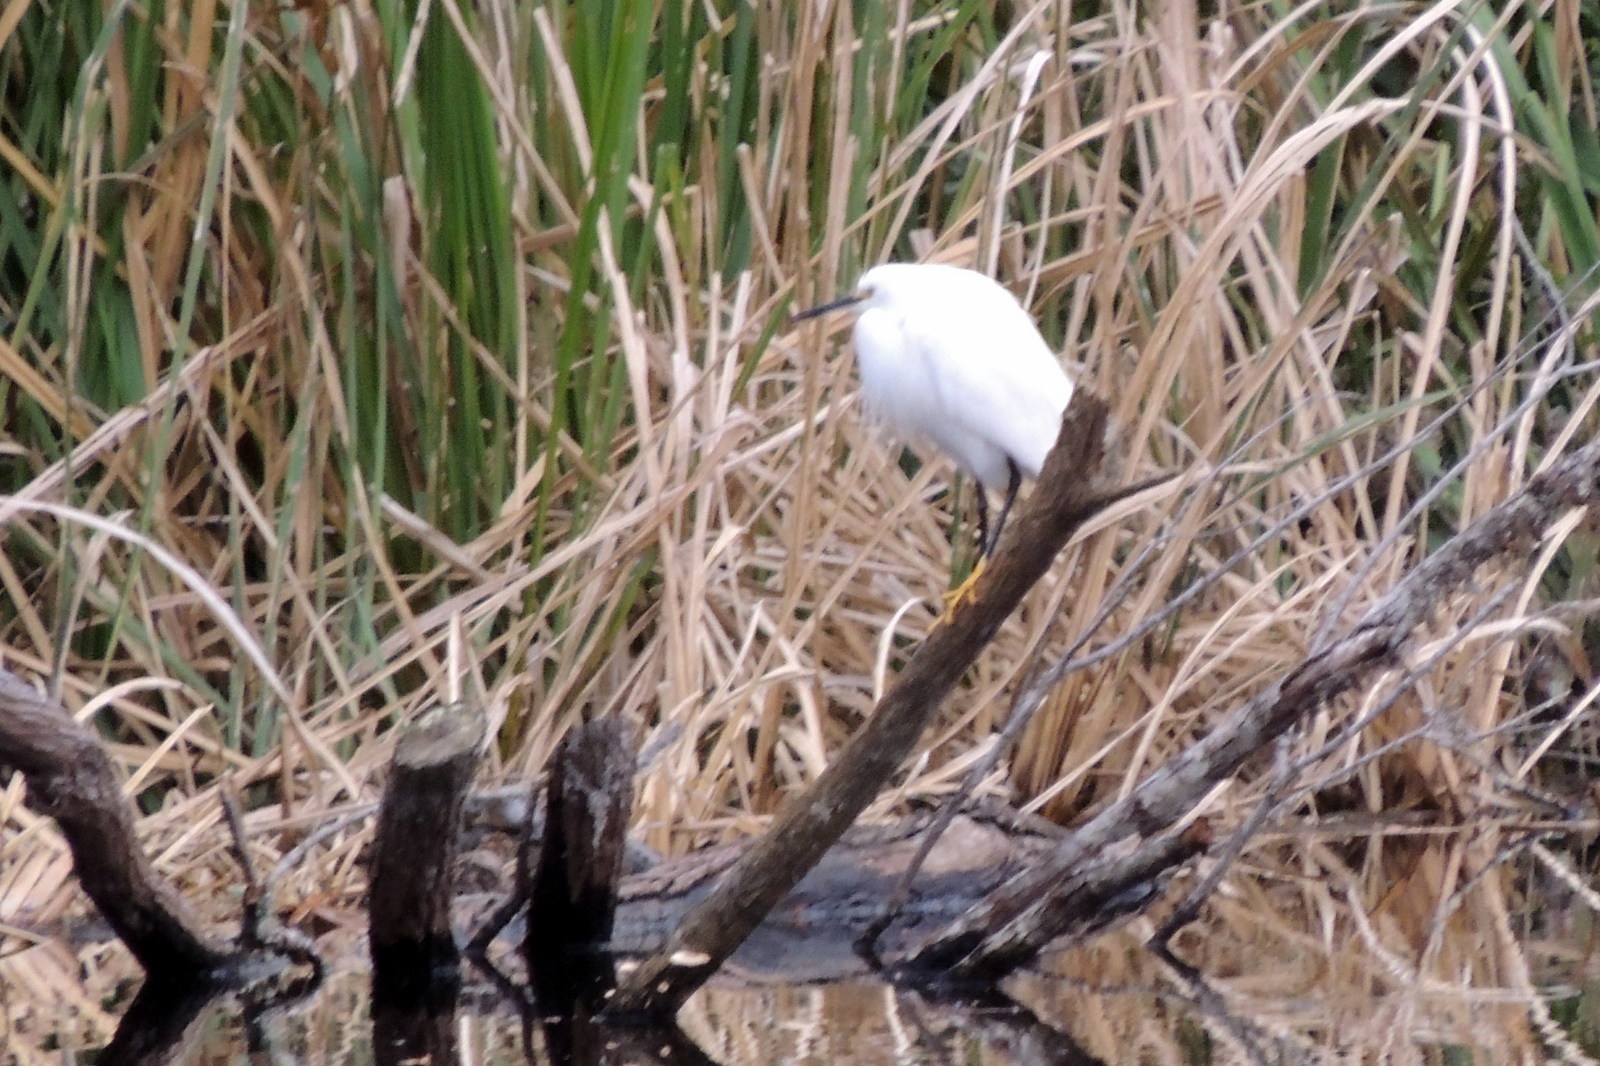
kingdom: Animalia
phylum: Chordata
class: Aves
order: Pelecaniformes
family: Ardeidae
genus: Egretta
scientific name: Egretta thula
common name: Snowy egret
